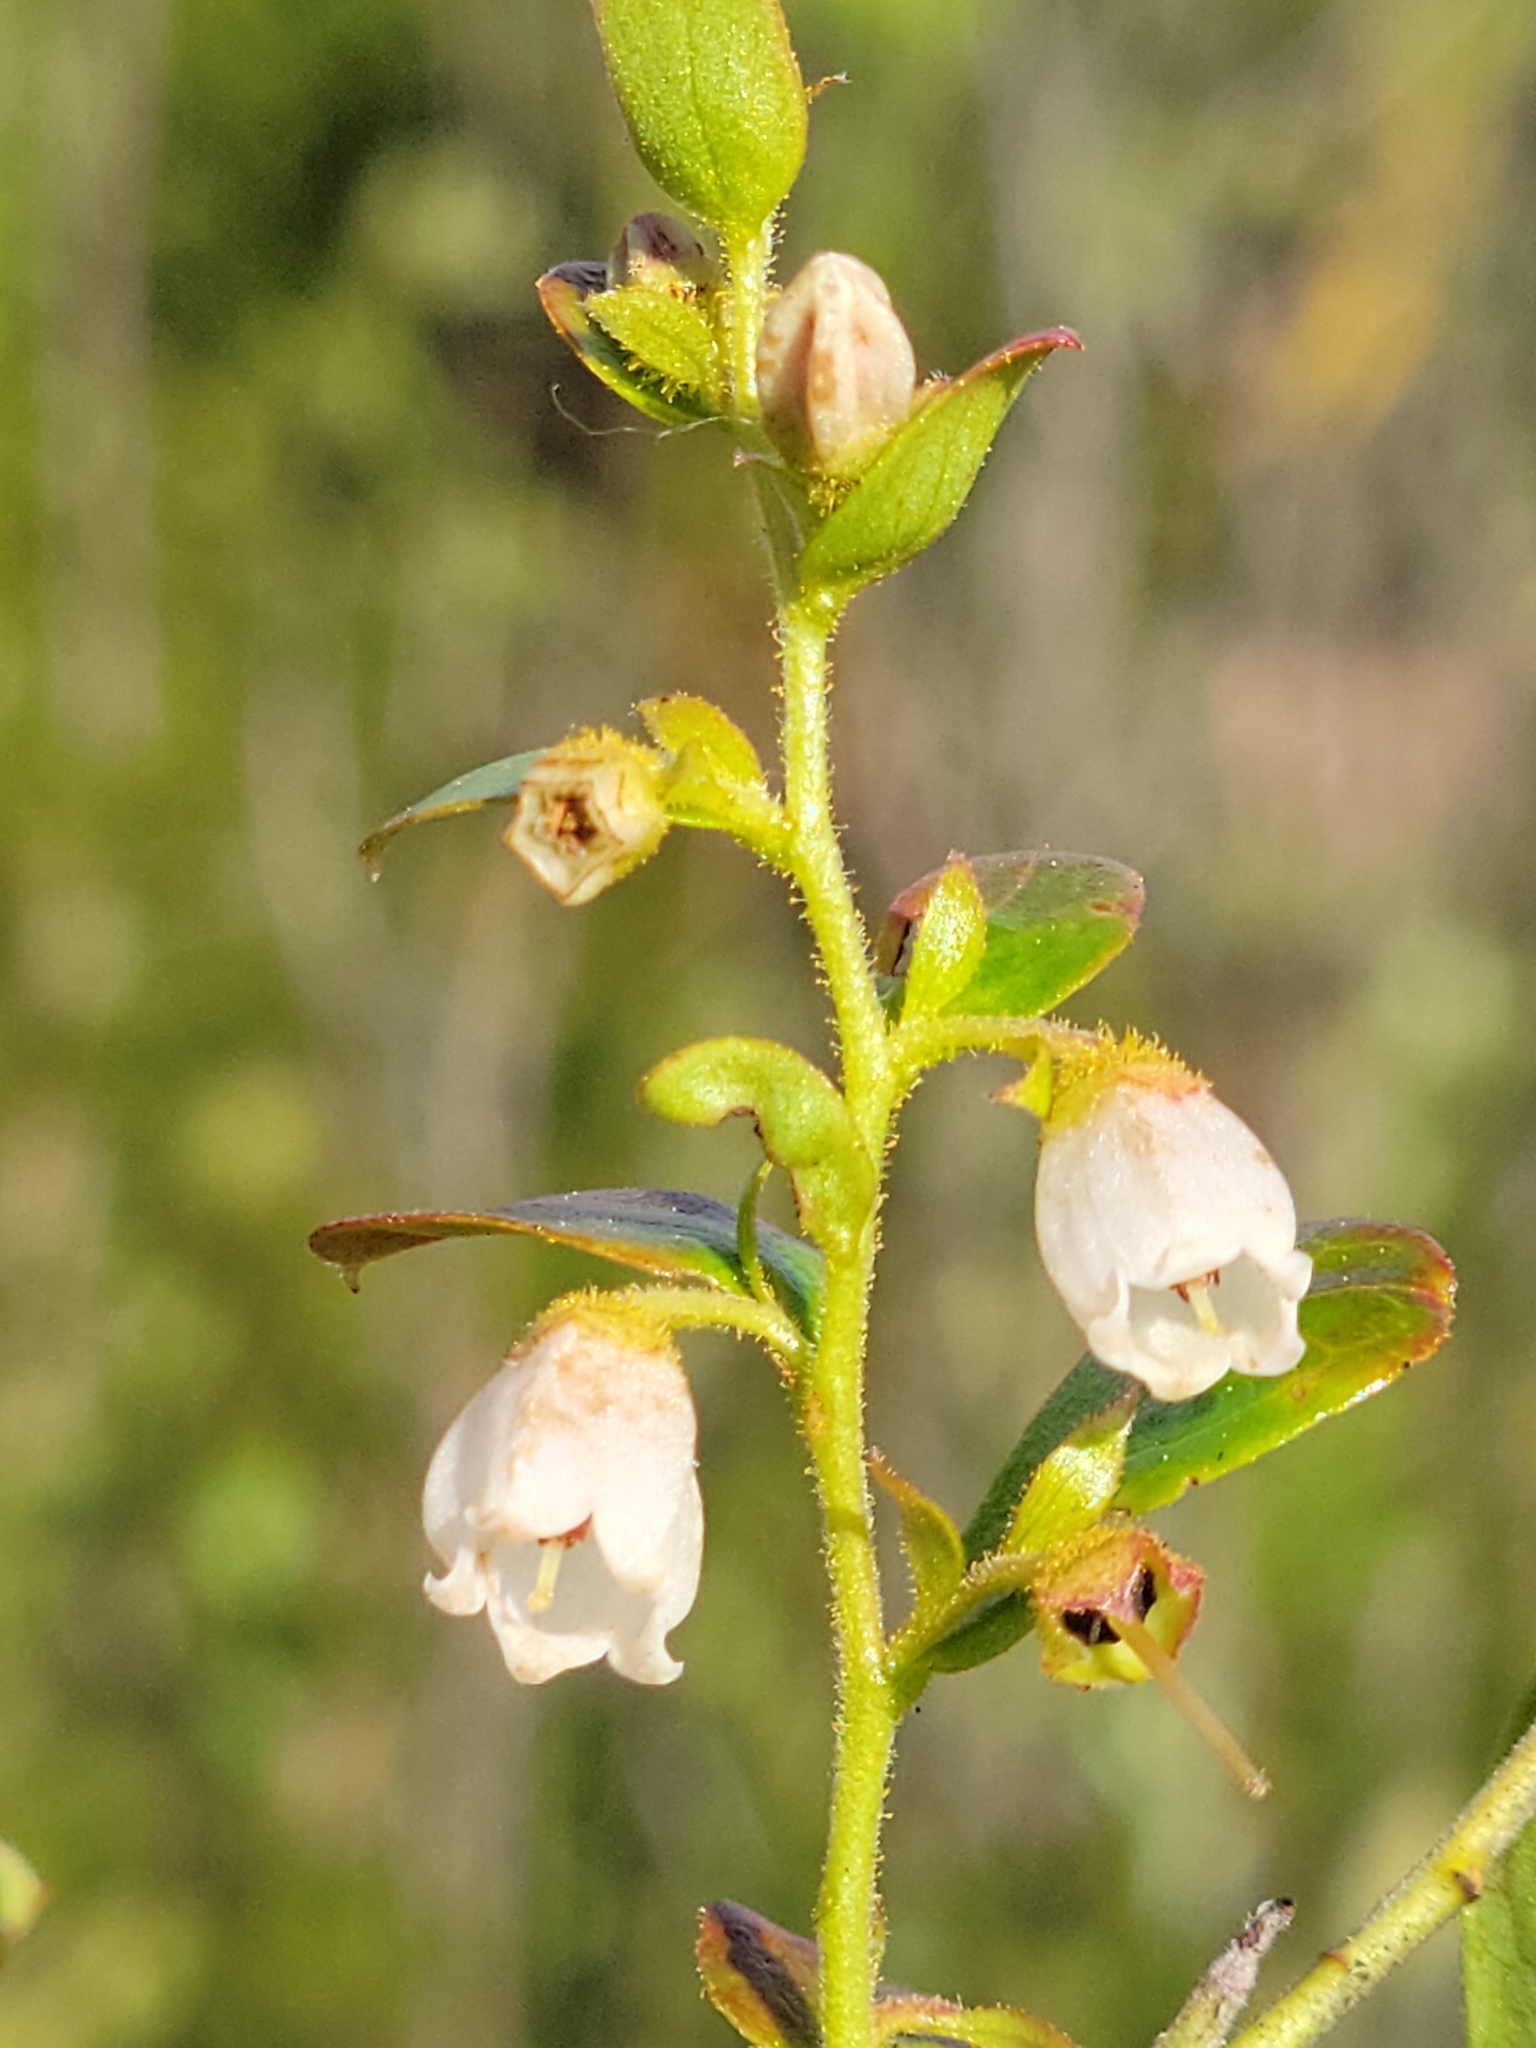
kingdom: Plantae
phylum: Tracheophyta
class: Magnoliopsida
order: Ericales
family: Ericaceae
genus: Gaylussacia
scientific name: Gaylussacia dumosa
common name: Dwarf huckleberry
